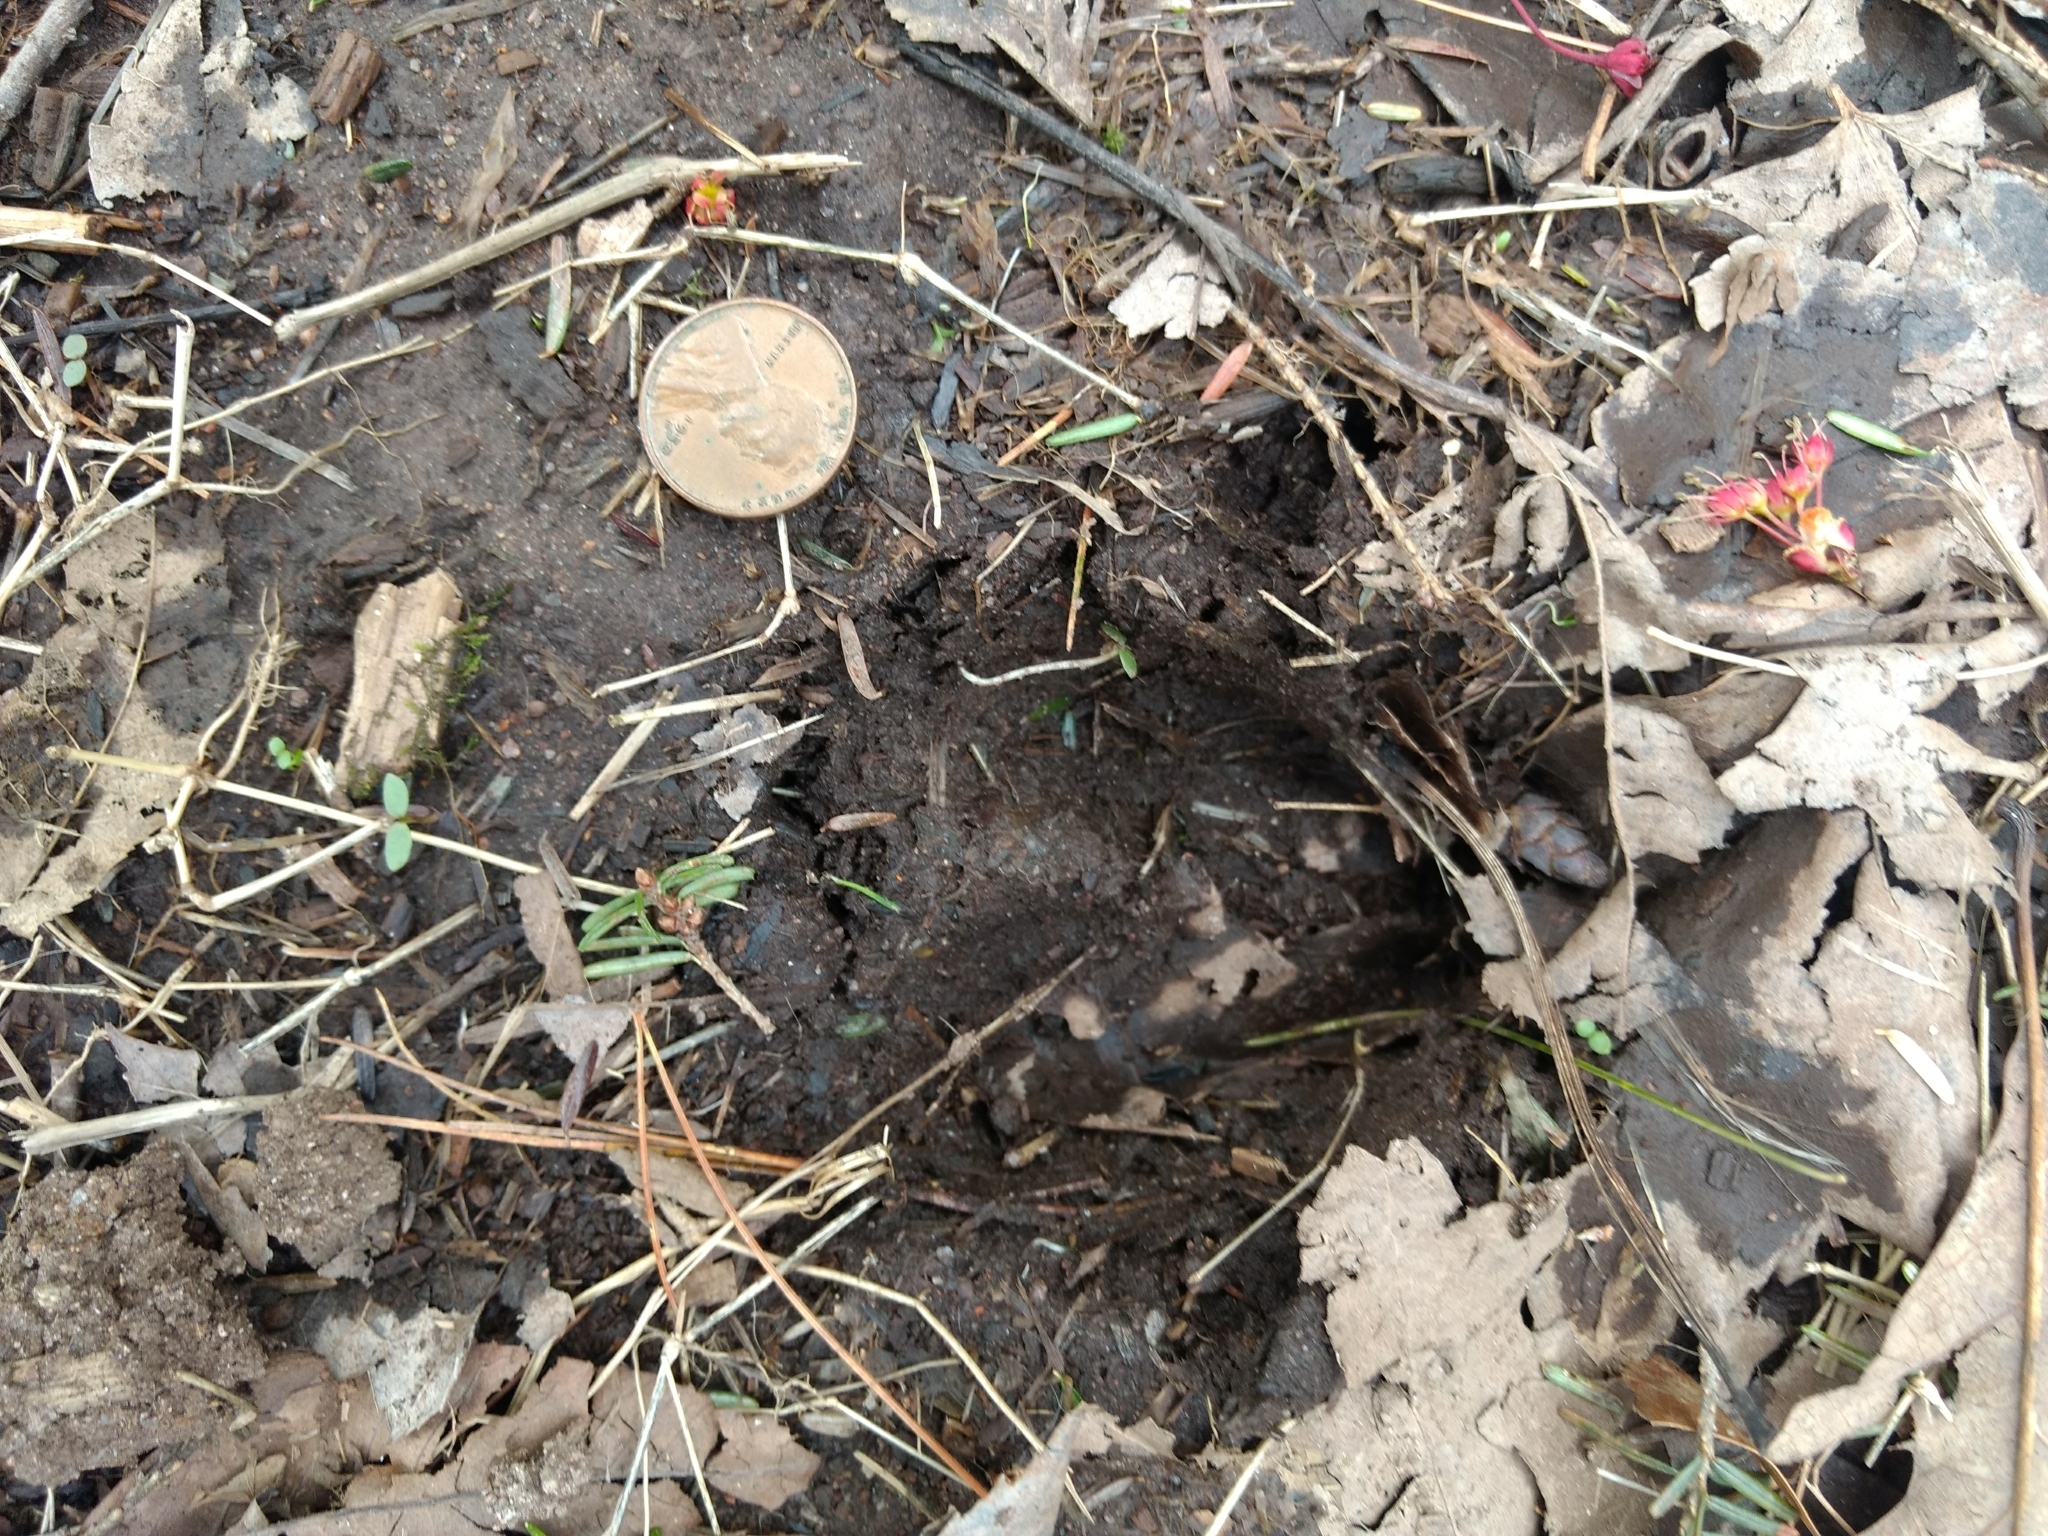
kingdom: Animalia
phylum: Chordata
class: Mammalia
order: Artiodactyla
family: Cervidae
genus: Odocoileus
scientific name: Odocoileus virginianus
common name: White-tailed deer
